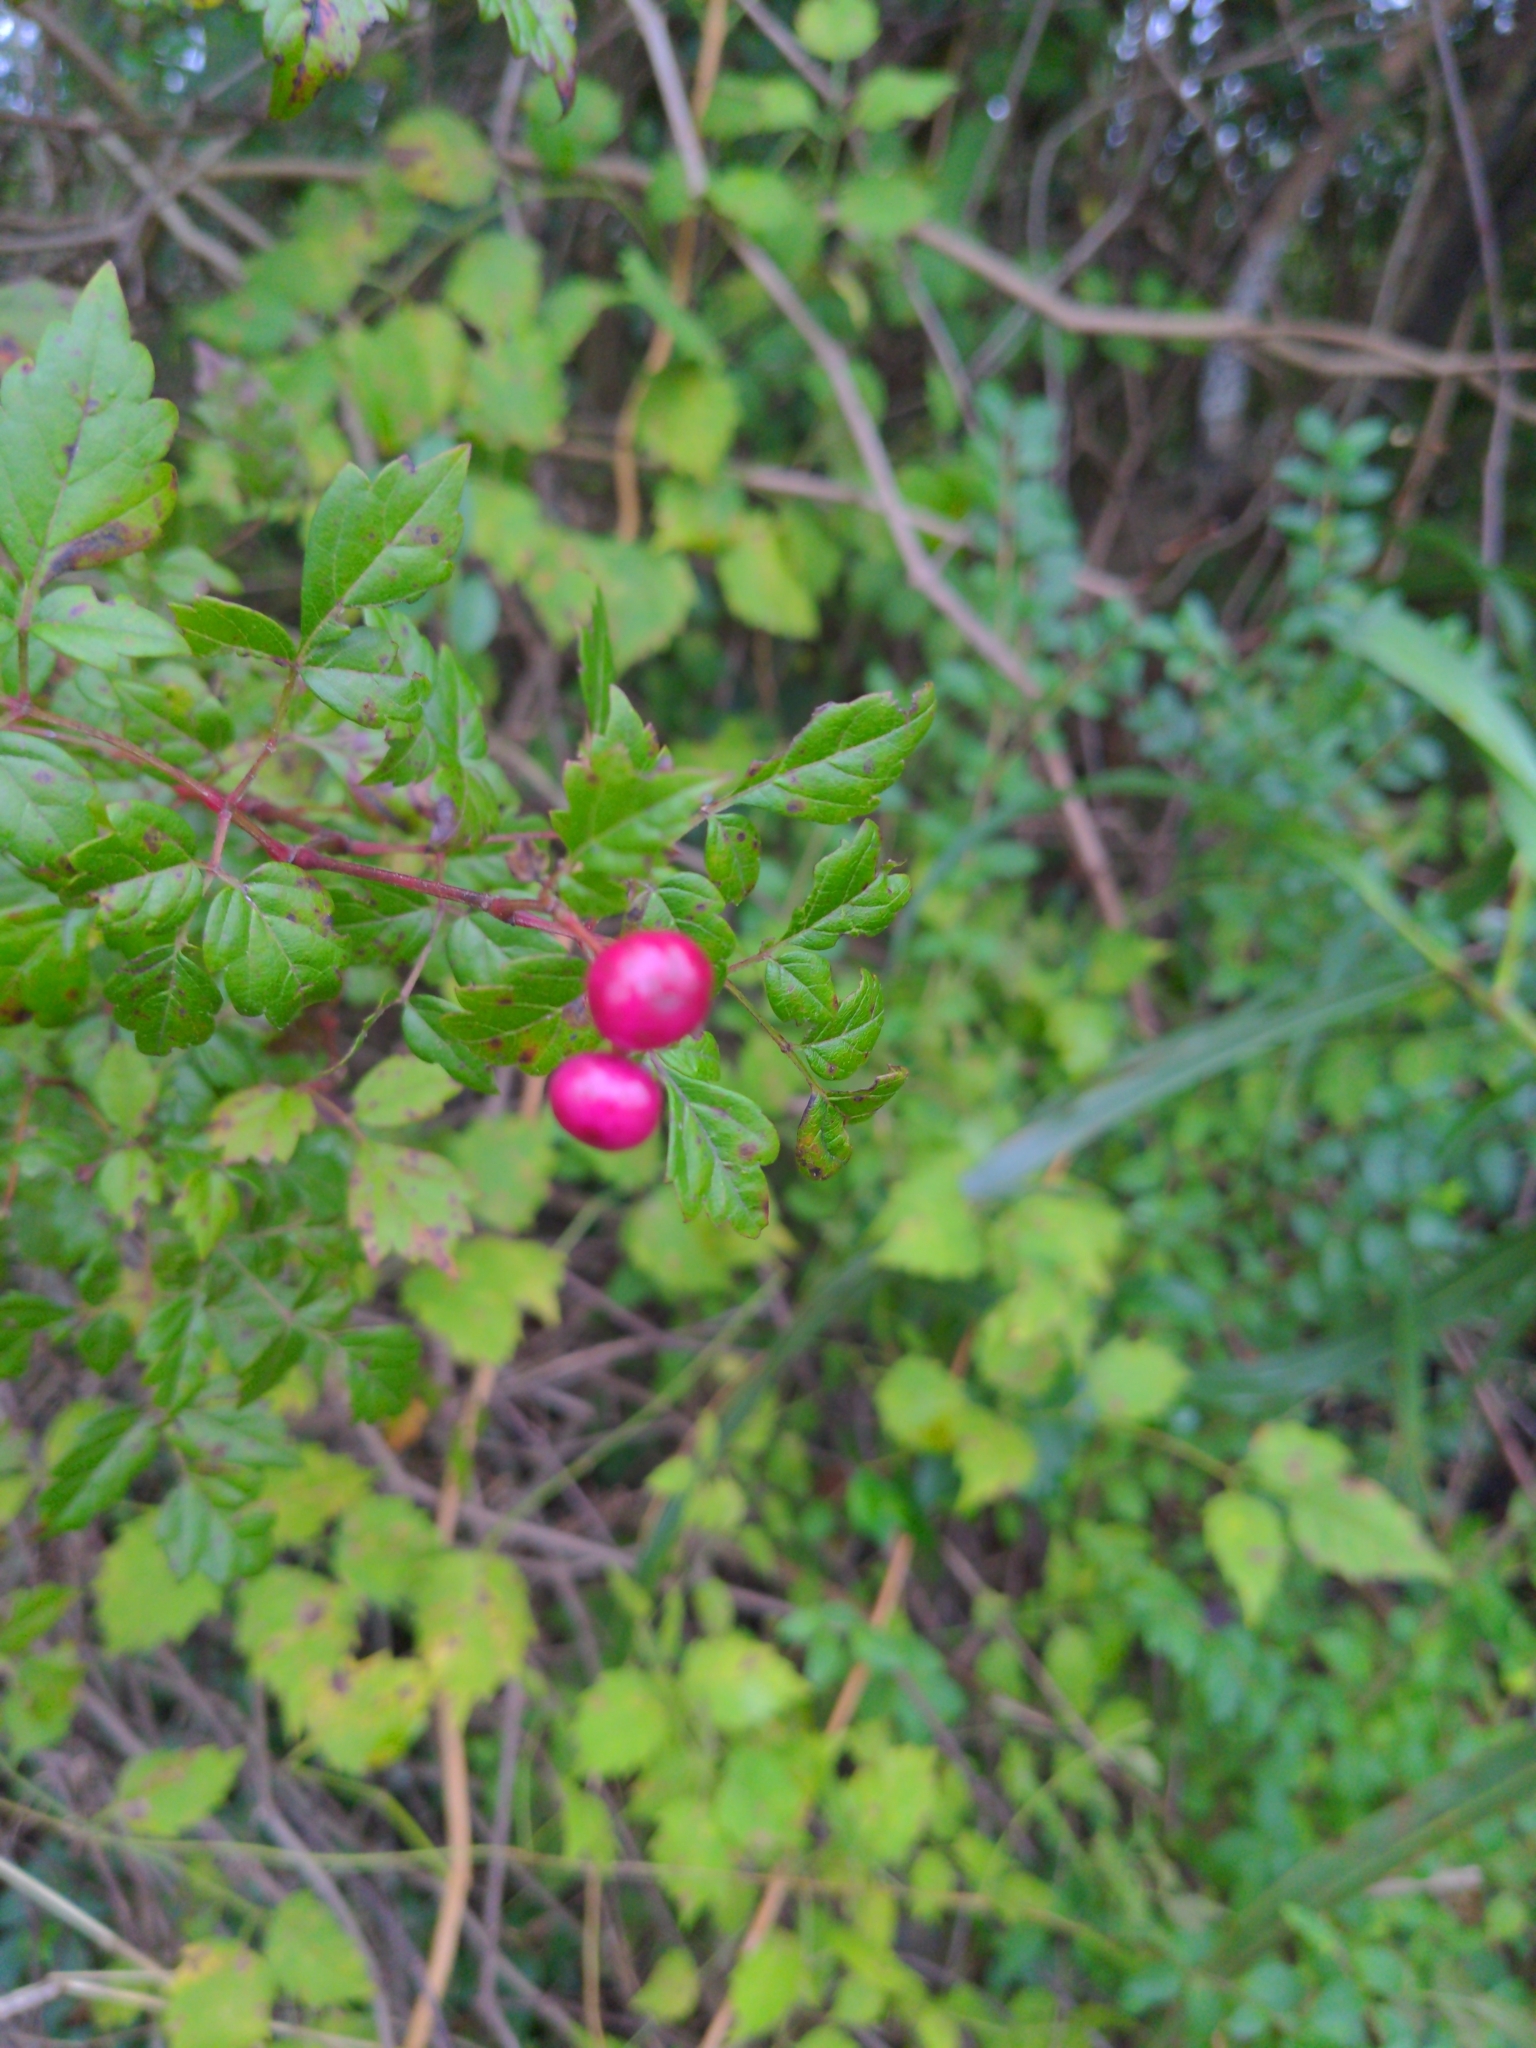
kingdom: Plantae
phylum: Tracheophyta
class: Magnoliopsida
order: Vitales
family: Vitaceae
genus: Nekemias
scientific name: Nekemias arborea
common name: Peppervine
